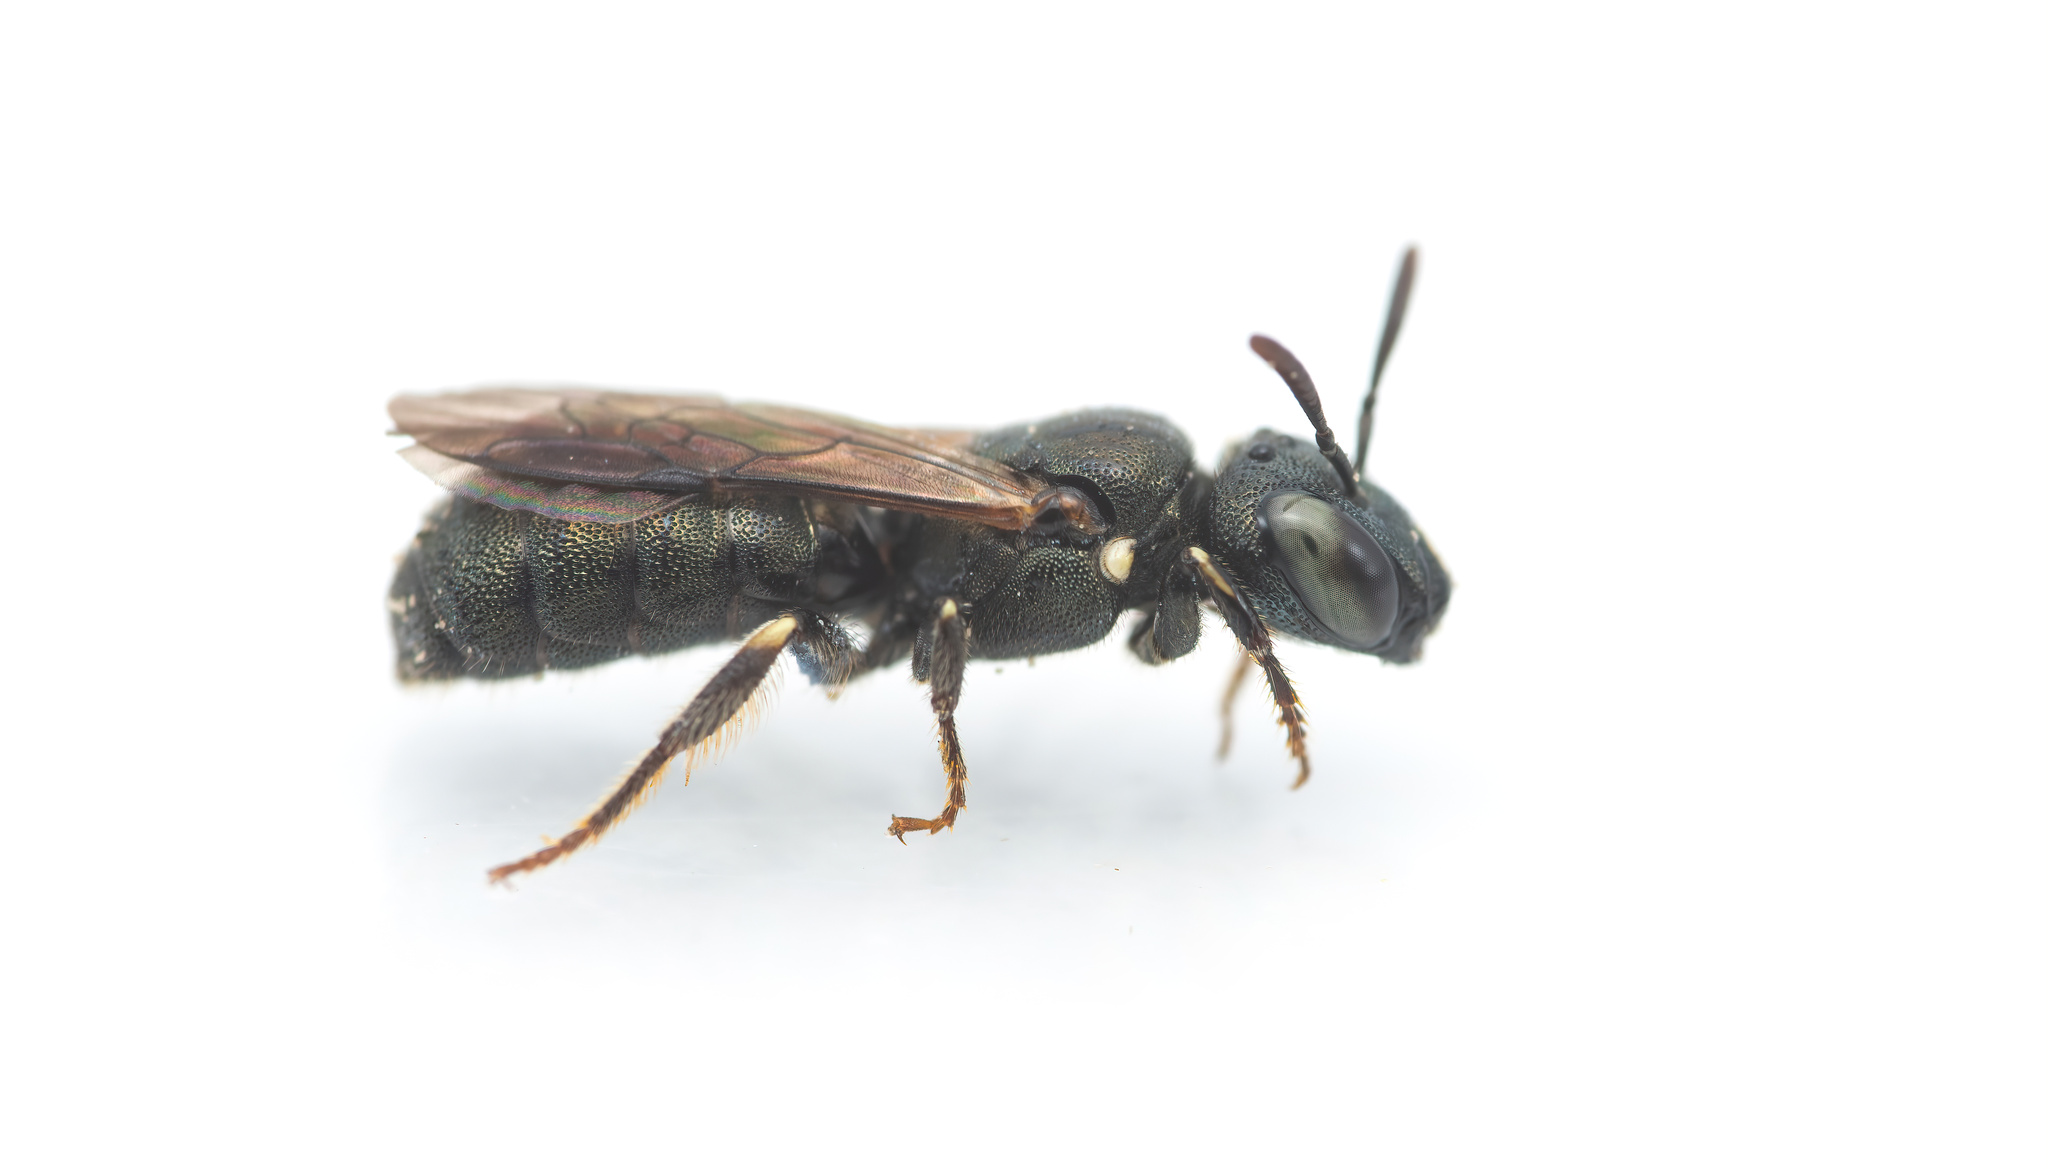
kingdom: Animalia
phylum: Arthropoda
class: Insecta
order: Hymenoptera
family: Apidae
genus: Ceratina
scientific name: Ceratina dallatorreana
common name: Dalla torre's small carpenter bee
